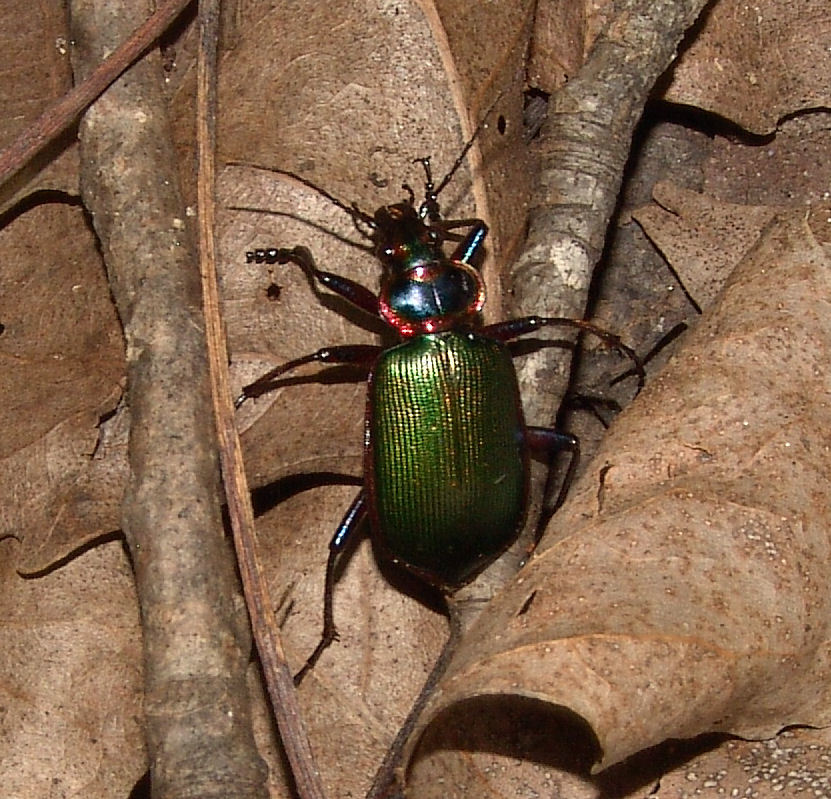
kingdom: Animalia
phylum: Arthropoda
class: Insecta
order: Coleoptera
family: Carabidae
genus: Calosoma
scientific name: Calosoma scrutator
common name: Fiery searcher beetle
